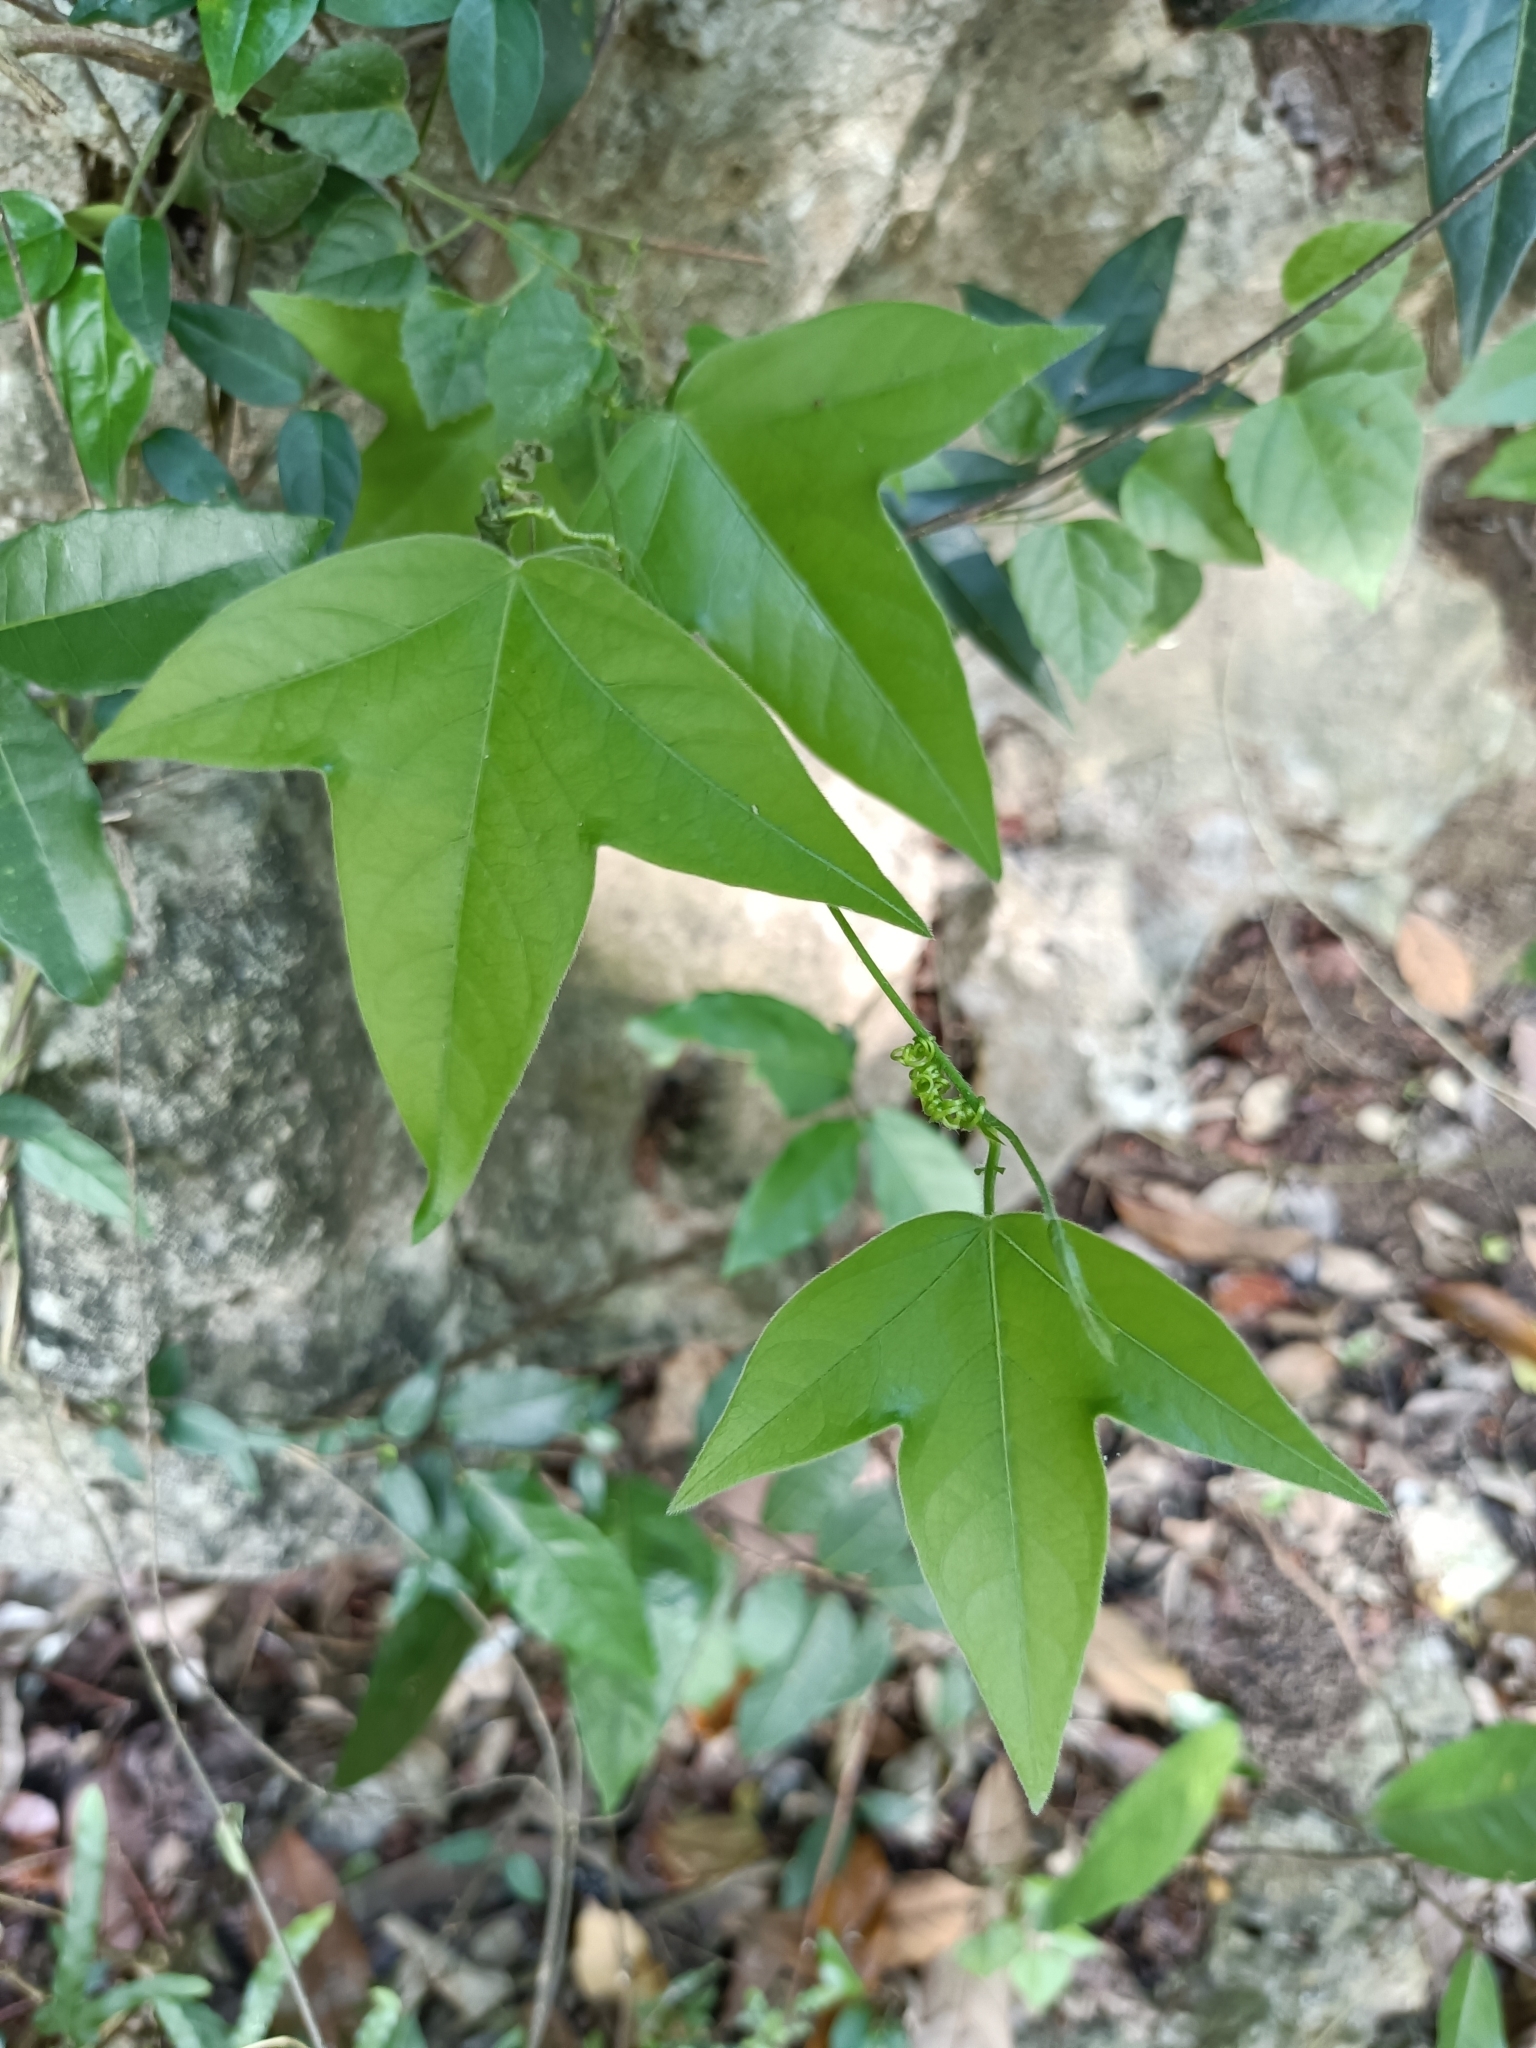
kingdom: Plantae
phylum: Tracheophyta
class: Magnoliopsida
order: Malpighiales
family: Passifloraceae
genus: Passiflora
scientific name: Passiflora suberosa
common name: Wild passionfruit
